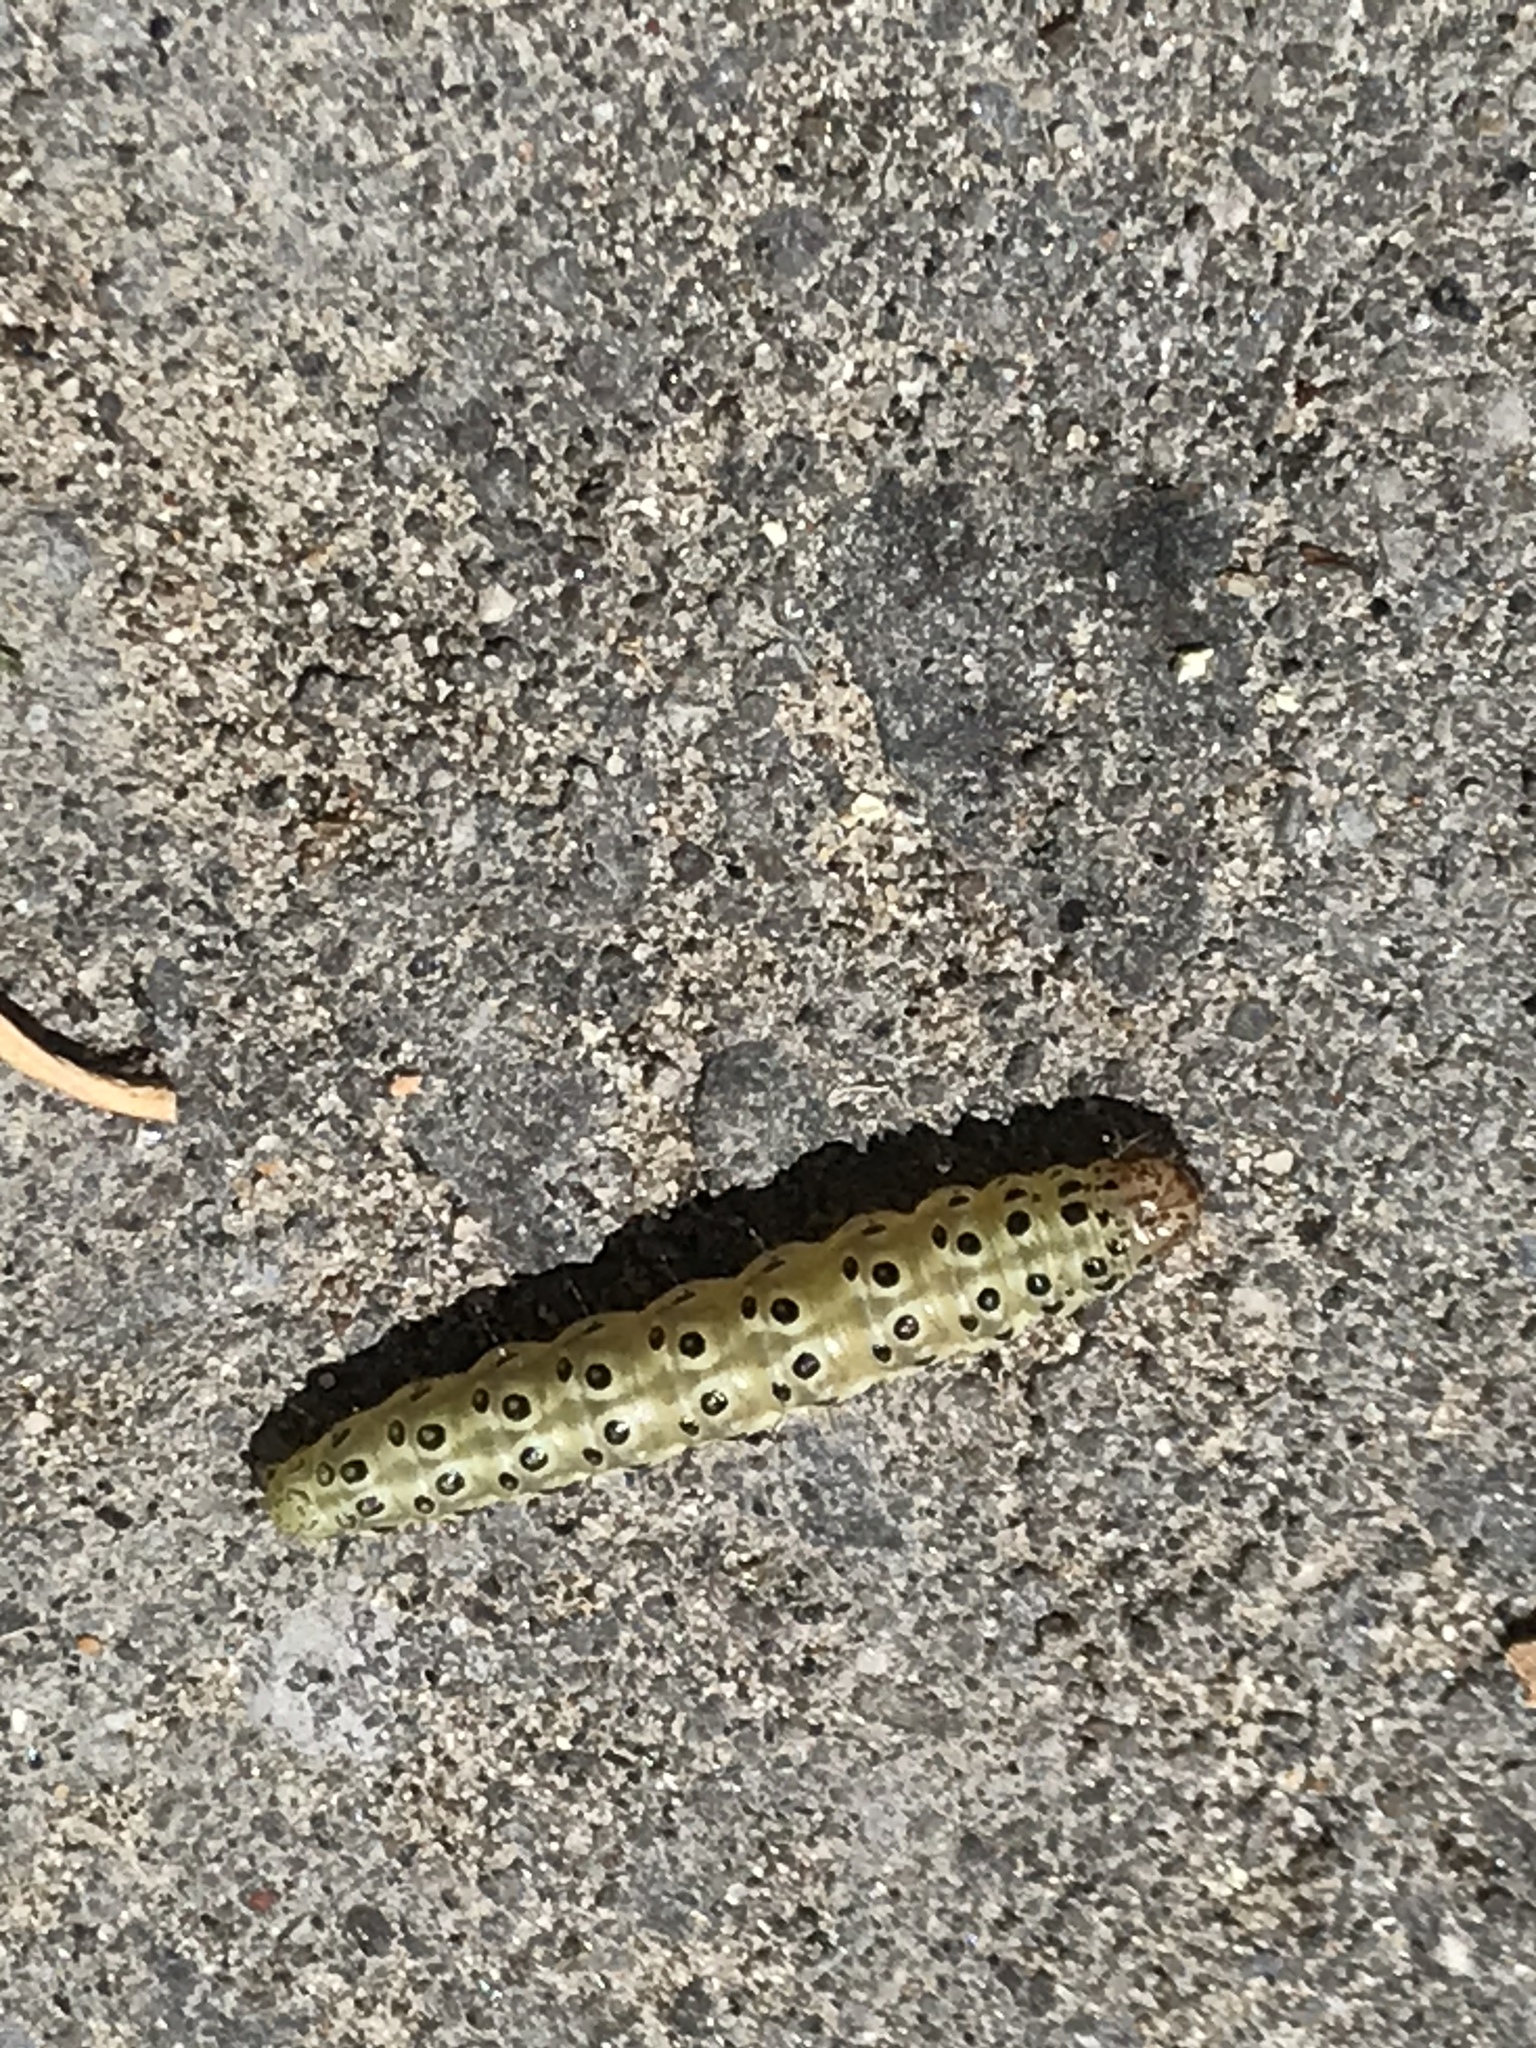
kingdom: Animalia
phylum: Arthropoda
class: Insecta
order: Lepidoptera
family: Crambidae
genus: Sitochroa
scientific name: Sitochroa palealis
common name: Greenish-yellow sitochroa moth
